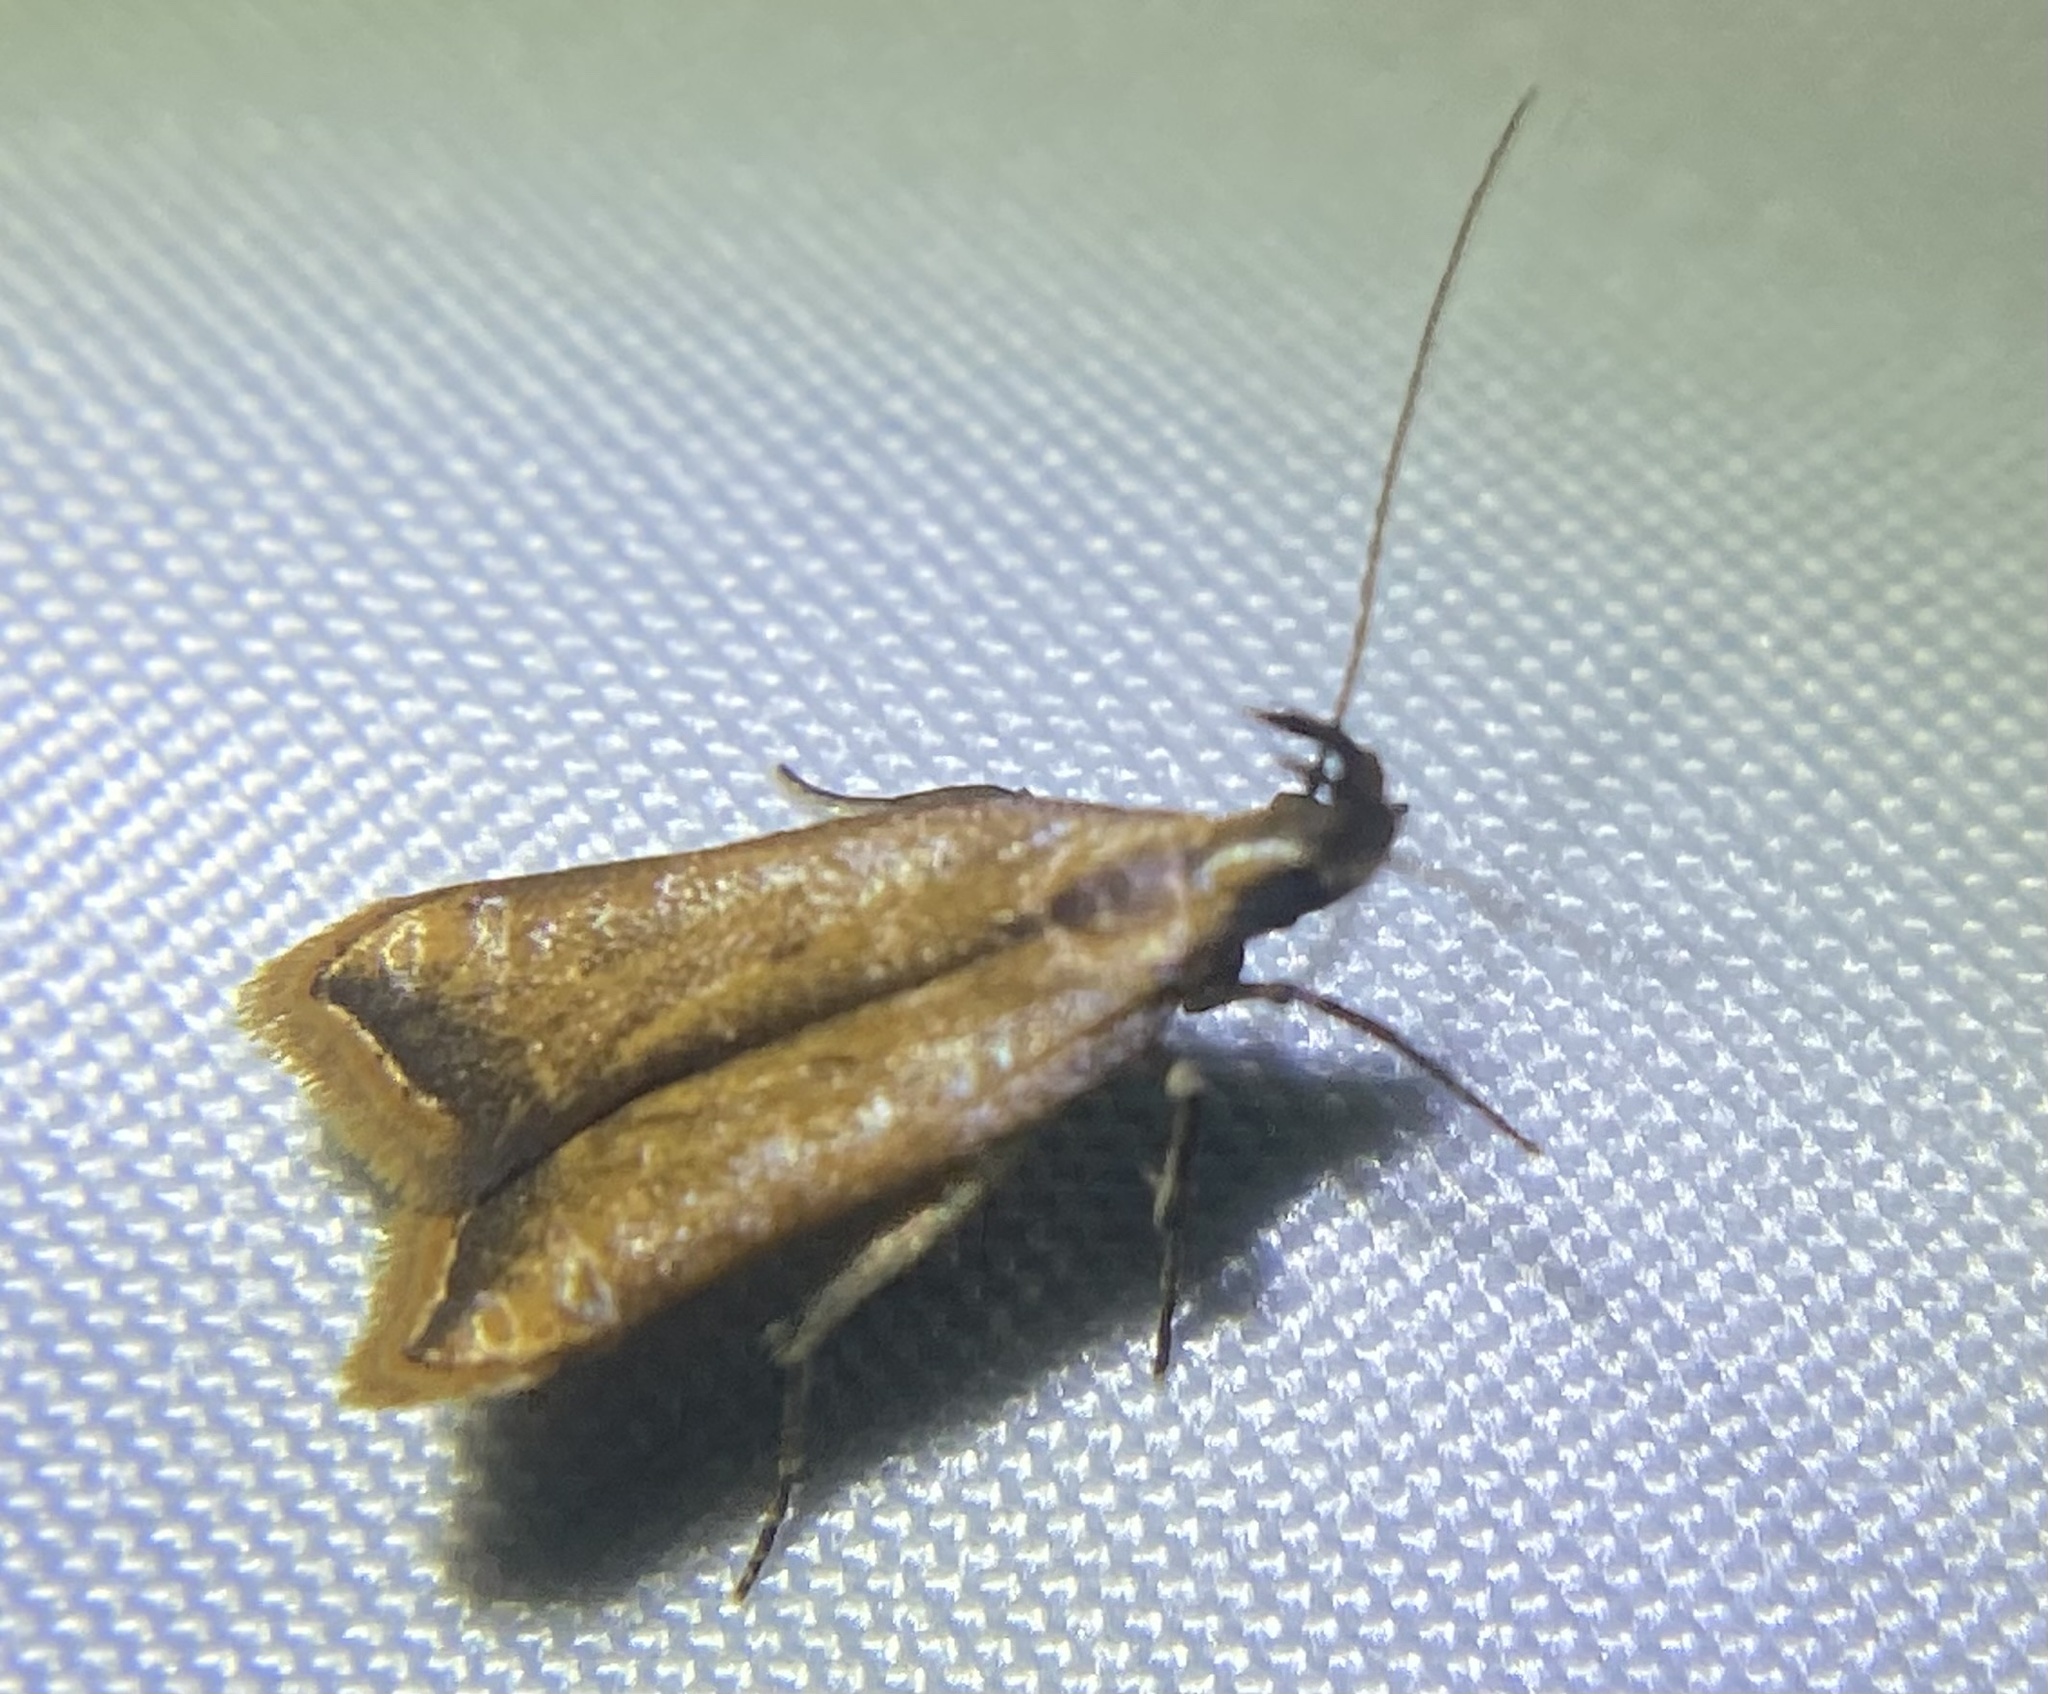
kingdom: Animalia
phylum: Arthropoda
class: Insecta
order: Lepidoptera
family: Gelechiidae
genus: Dichomeris
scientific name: Dichomeris heriguronis
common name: Black-edged dichomeris moth
